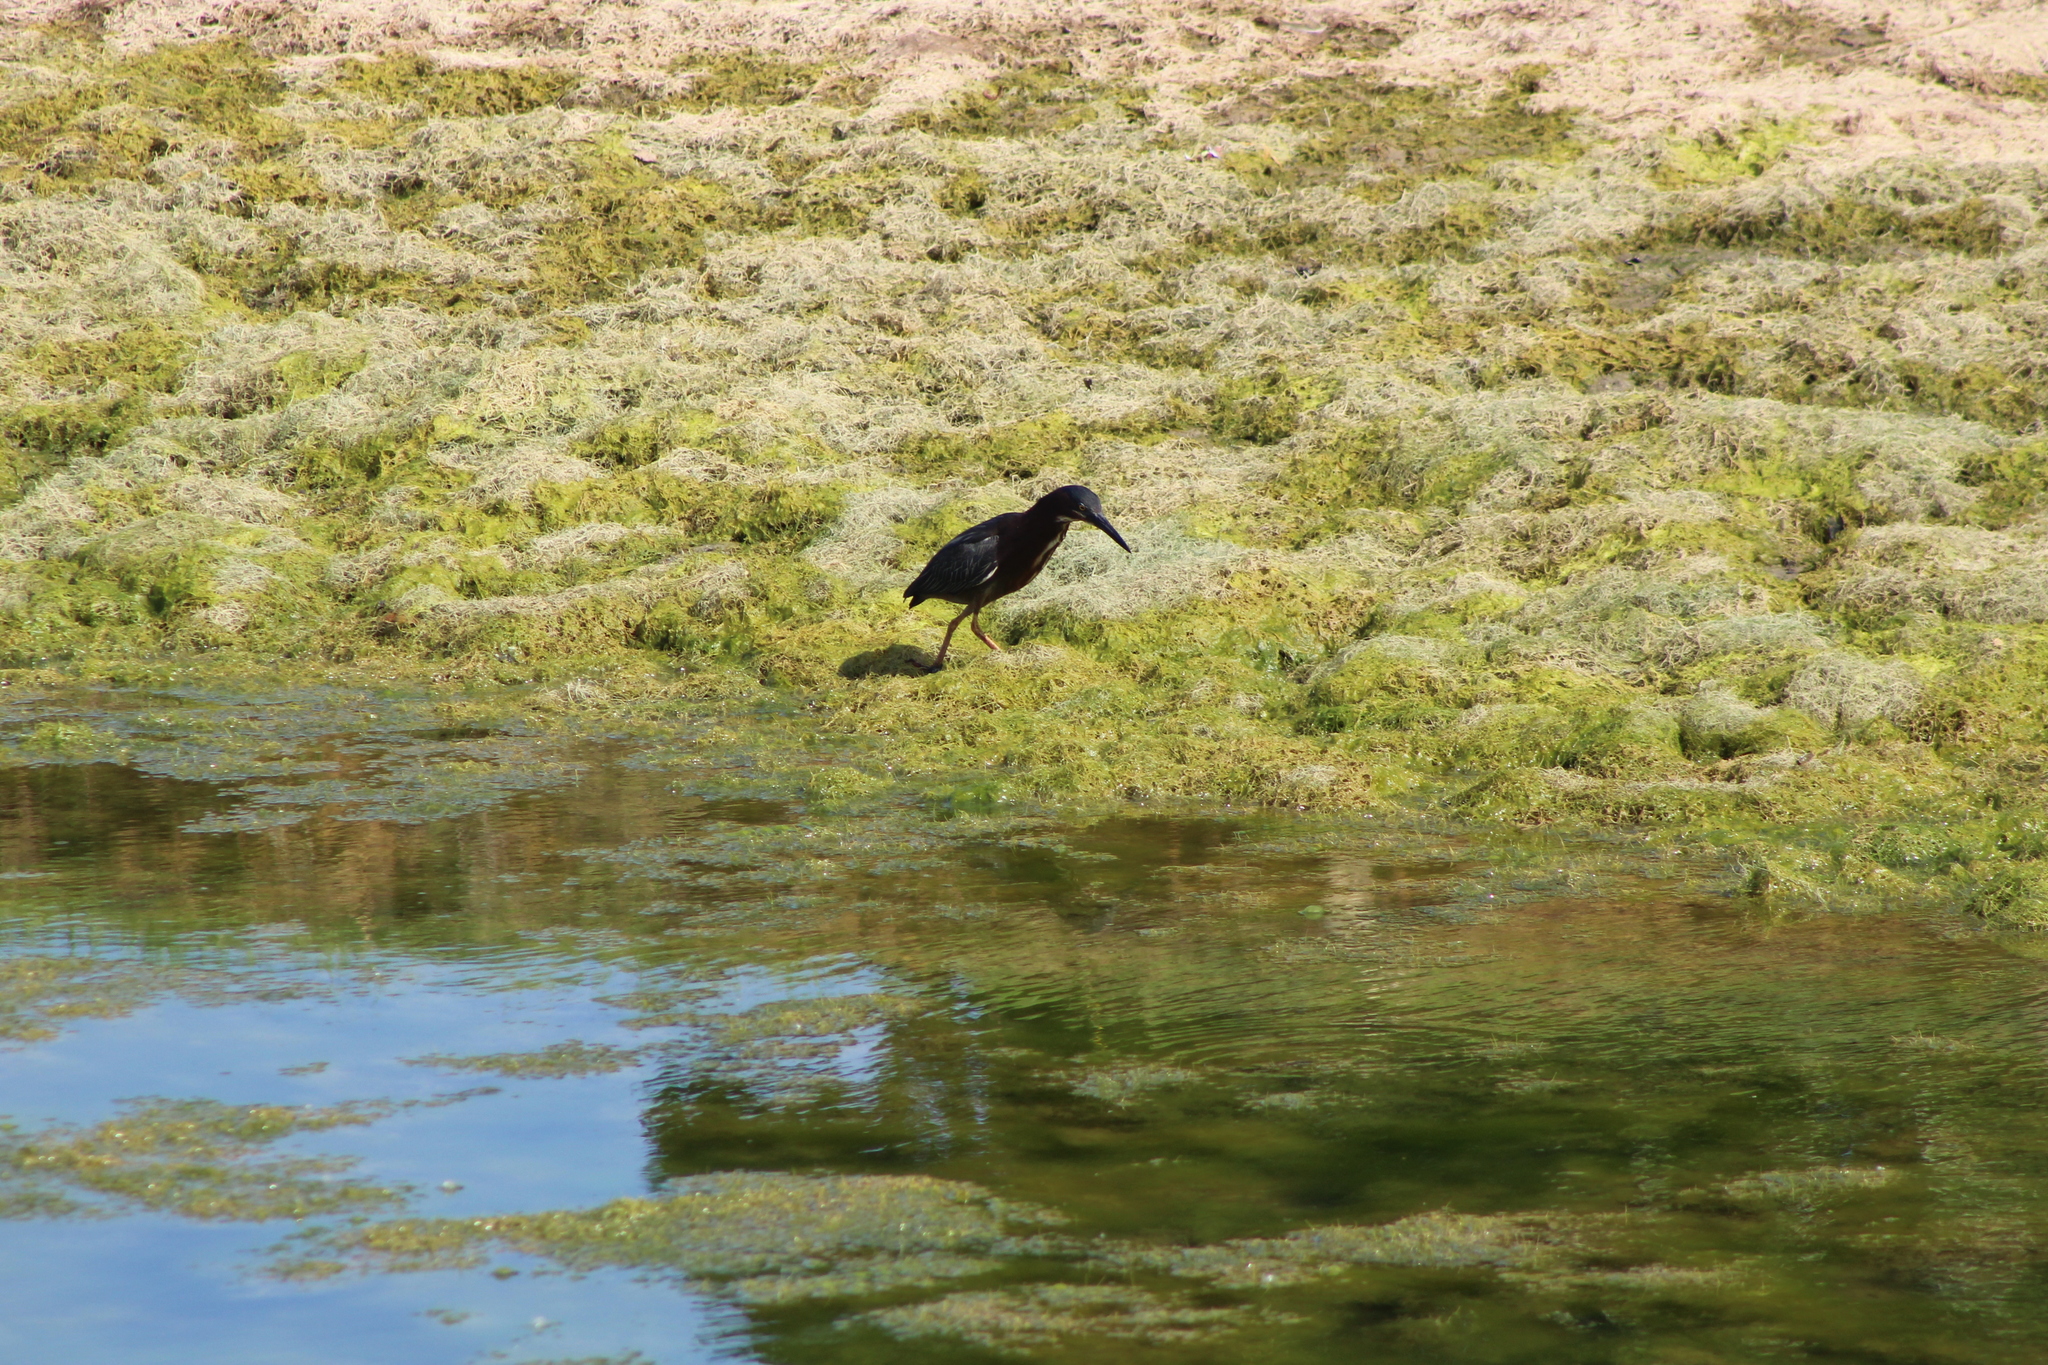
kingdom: Animalia
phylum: Chordata
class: Aves
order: Pelecaniformes
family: Ardeidae
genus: Butorides
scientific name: Butorides virescens
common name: Green heron
